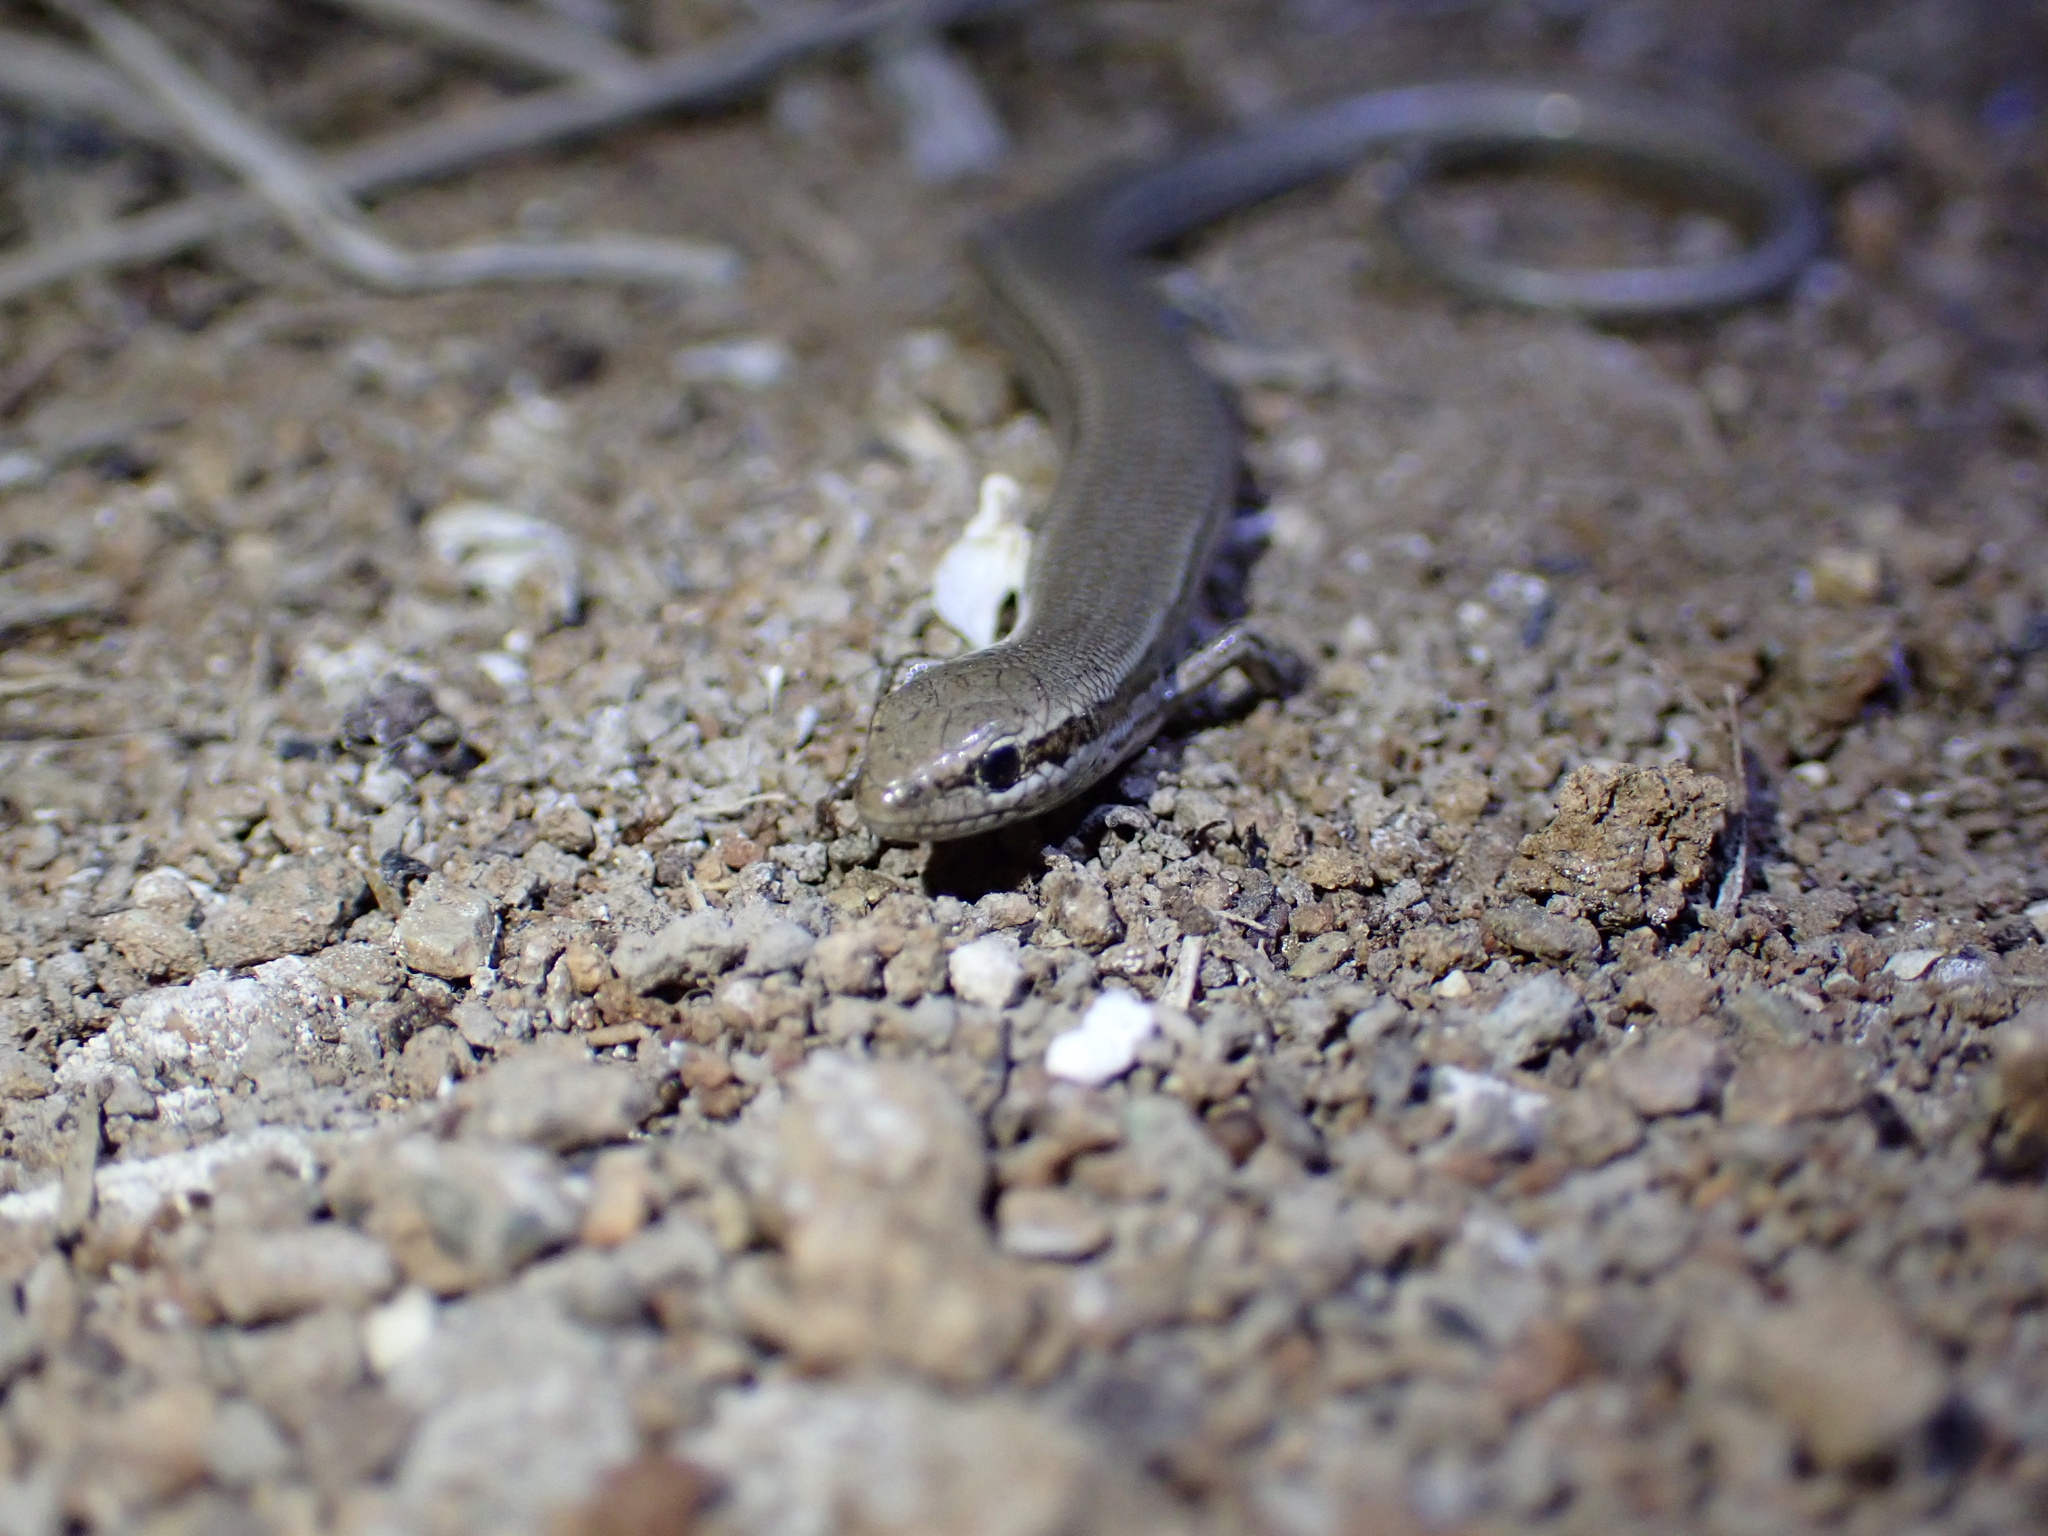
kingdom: Animalia
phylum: Chordata
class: Squamata
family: Scincidae
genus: Ablepharus
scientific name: Ablepharus pannonicus
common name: Asian snake-eyed skink
